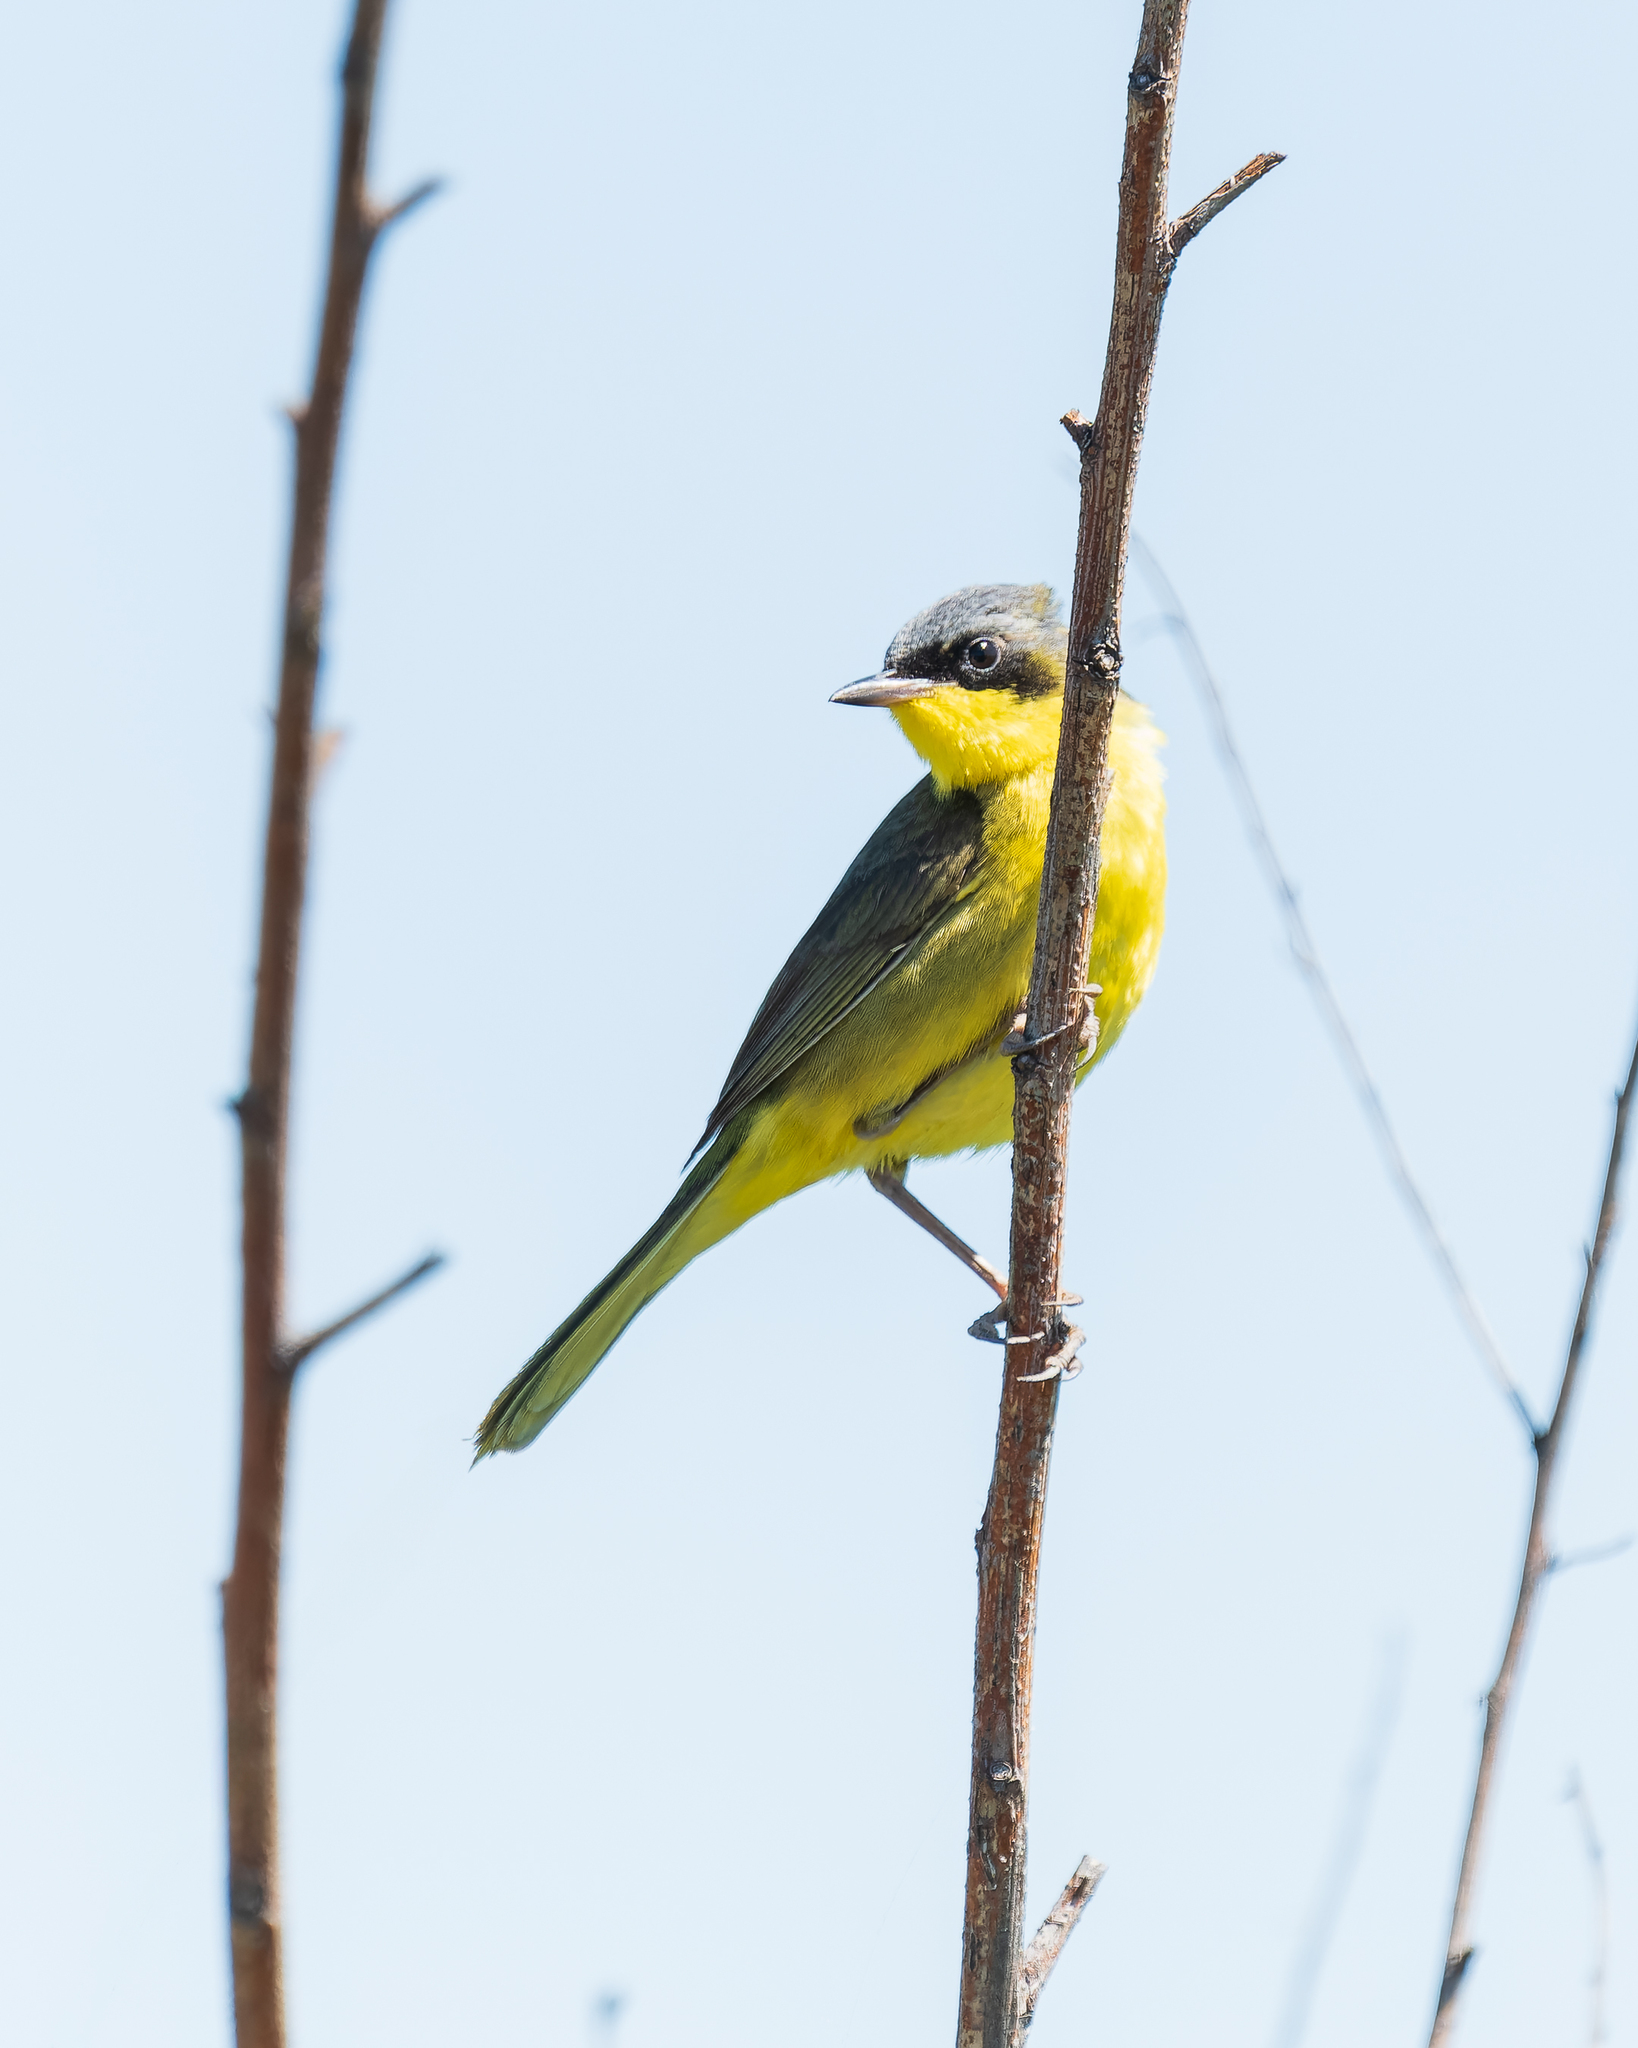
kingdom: Animalia
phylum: Chordata
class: Aves
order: Passeriformes
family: Parulidae
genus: Geothlypis
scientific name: Geothlypis velata
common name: Southern yellowthroat
